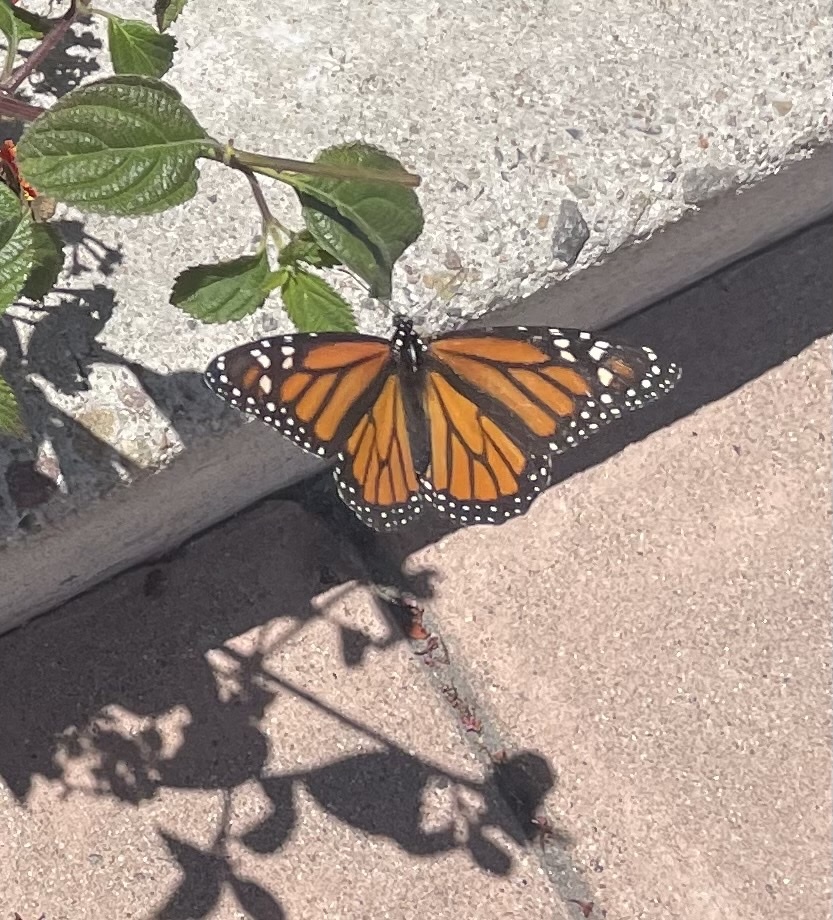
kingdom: Animalia
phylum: Arthropoda
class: Insecta
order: Lepidoptera
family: Nymphalidae
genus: Danaus
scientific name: Danaus plexippus
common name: Monarch
